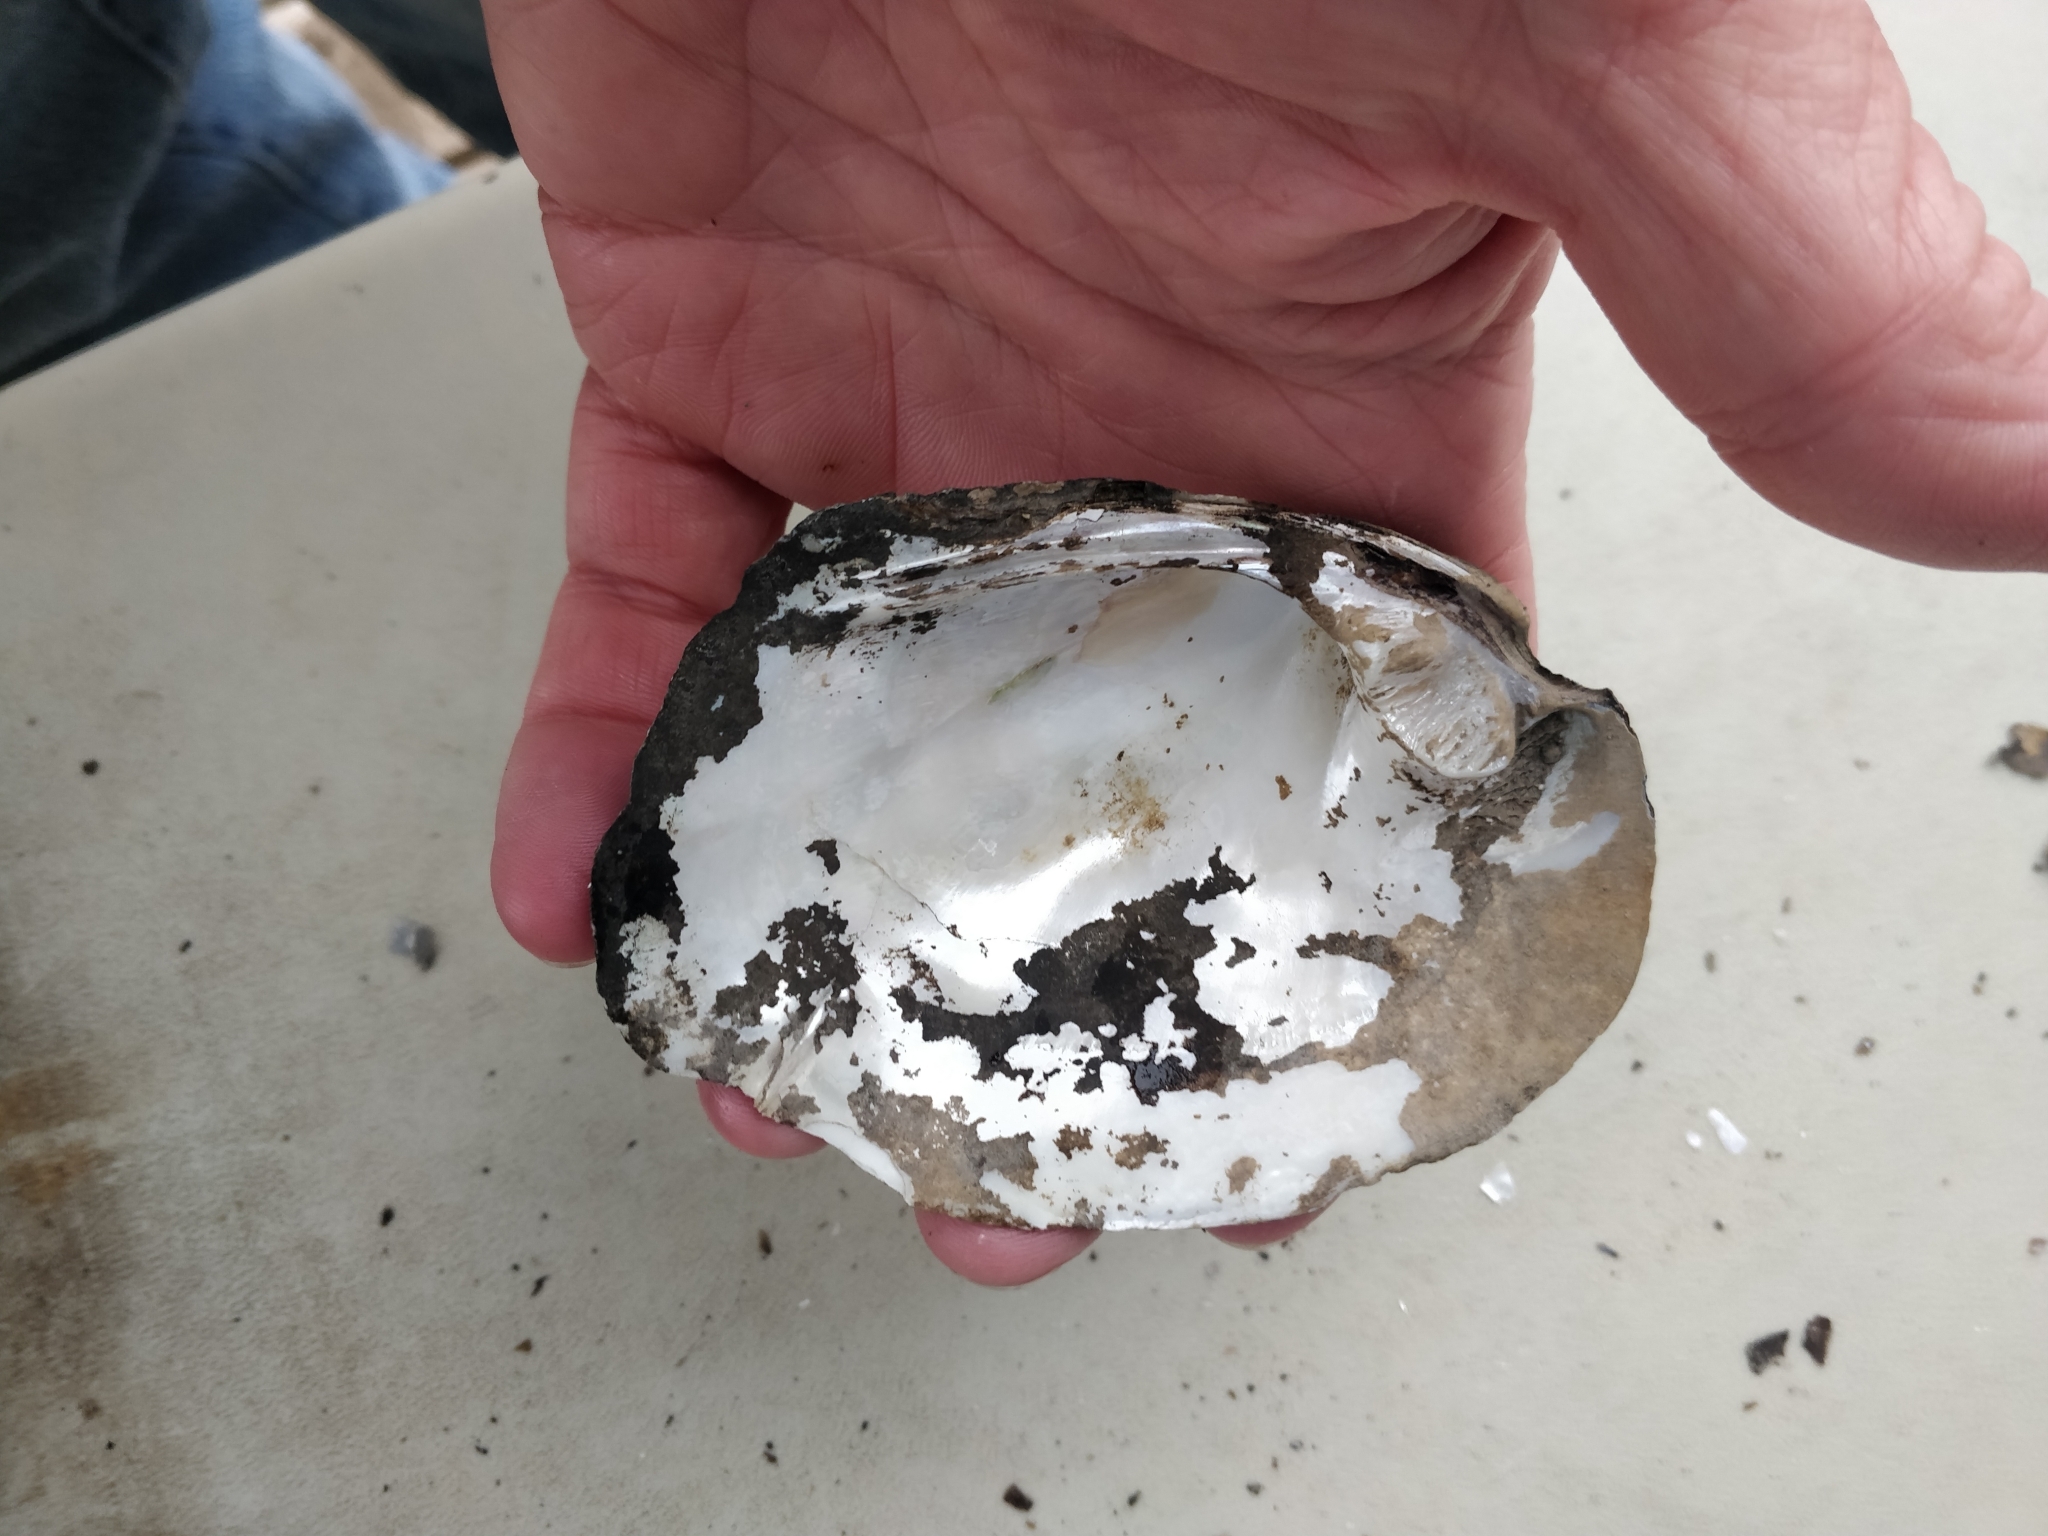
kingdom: Animalia
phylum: Mollusca
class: Bivalvia
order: Unionida
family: Unionidae
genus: Amblema
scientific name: Amblema plicata
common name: Threeridge
